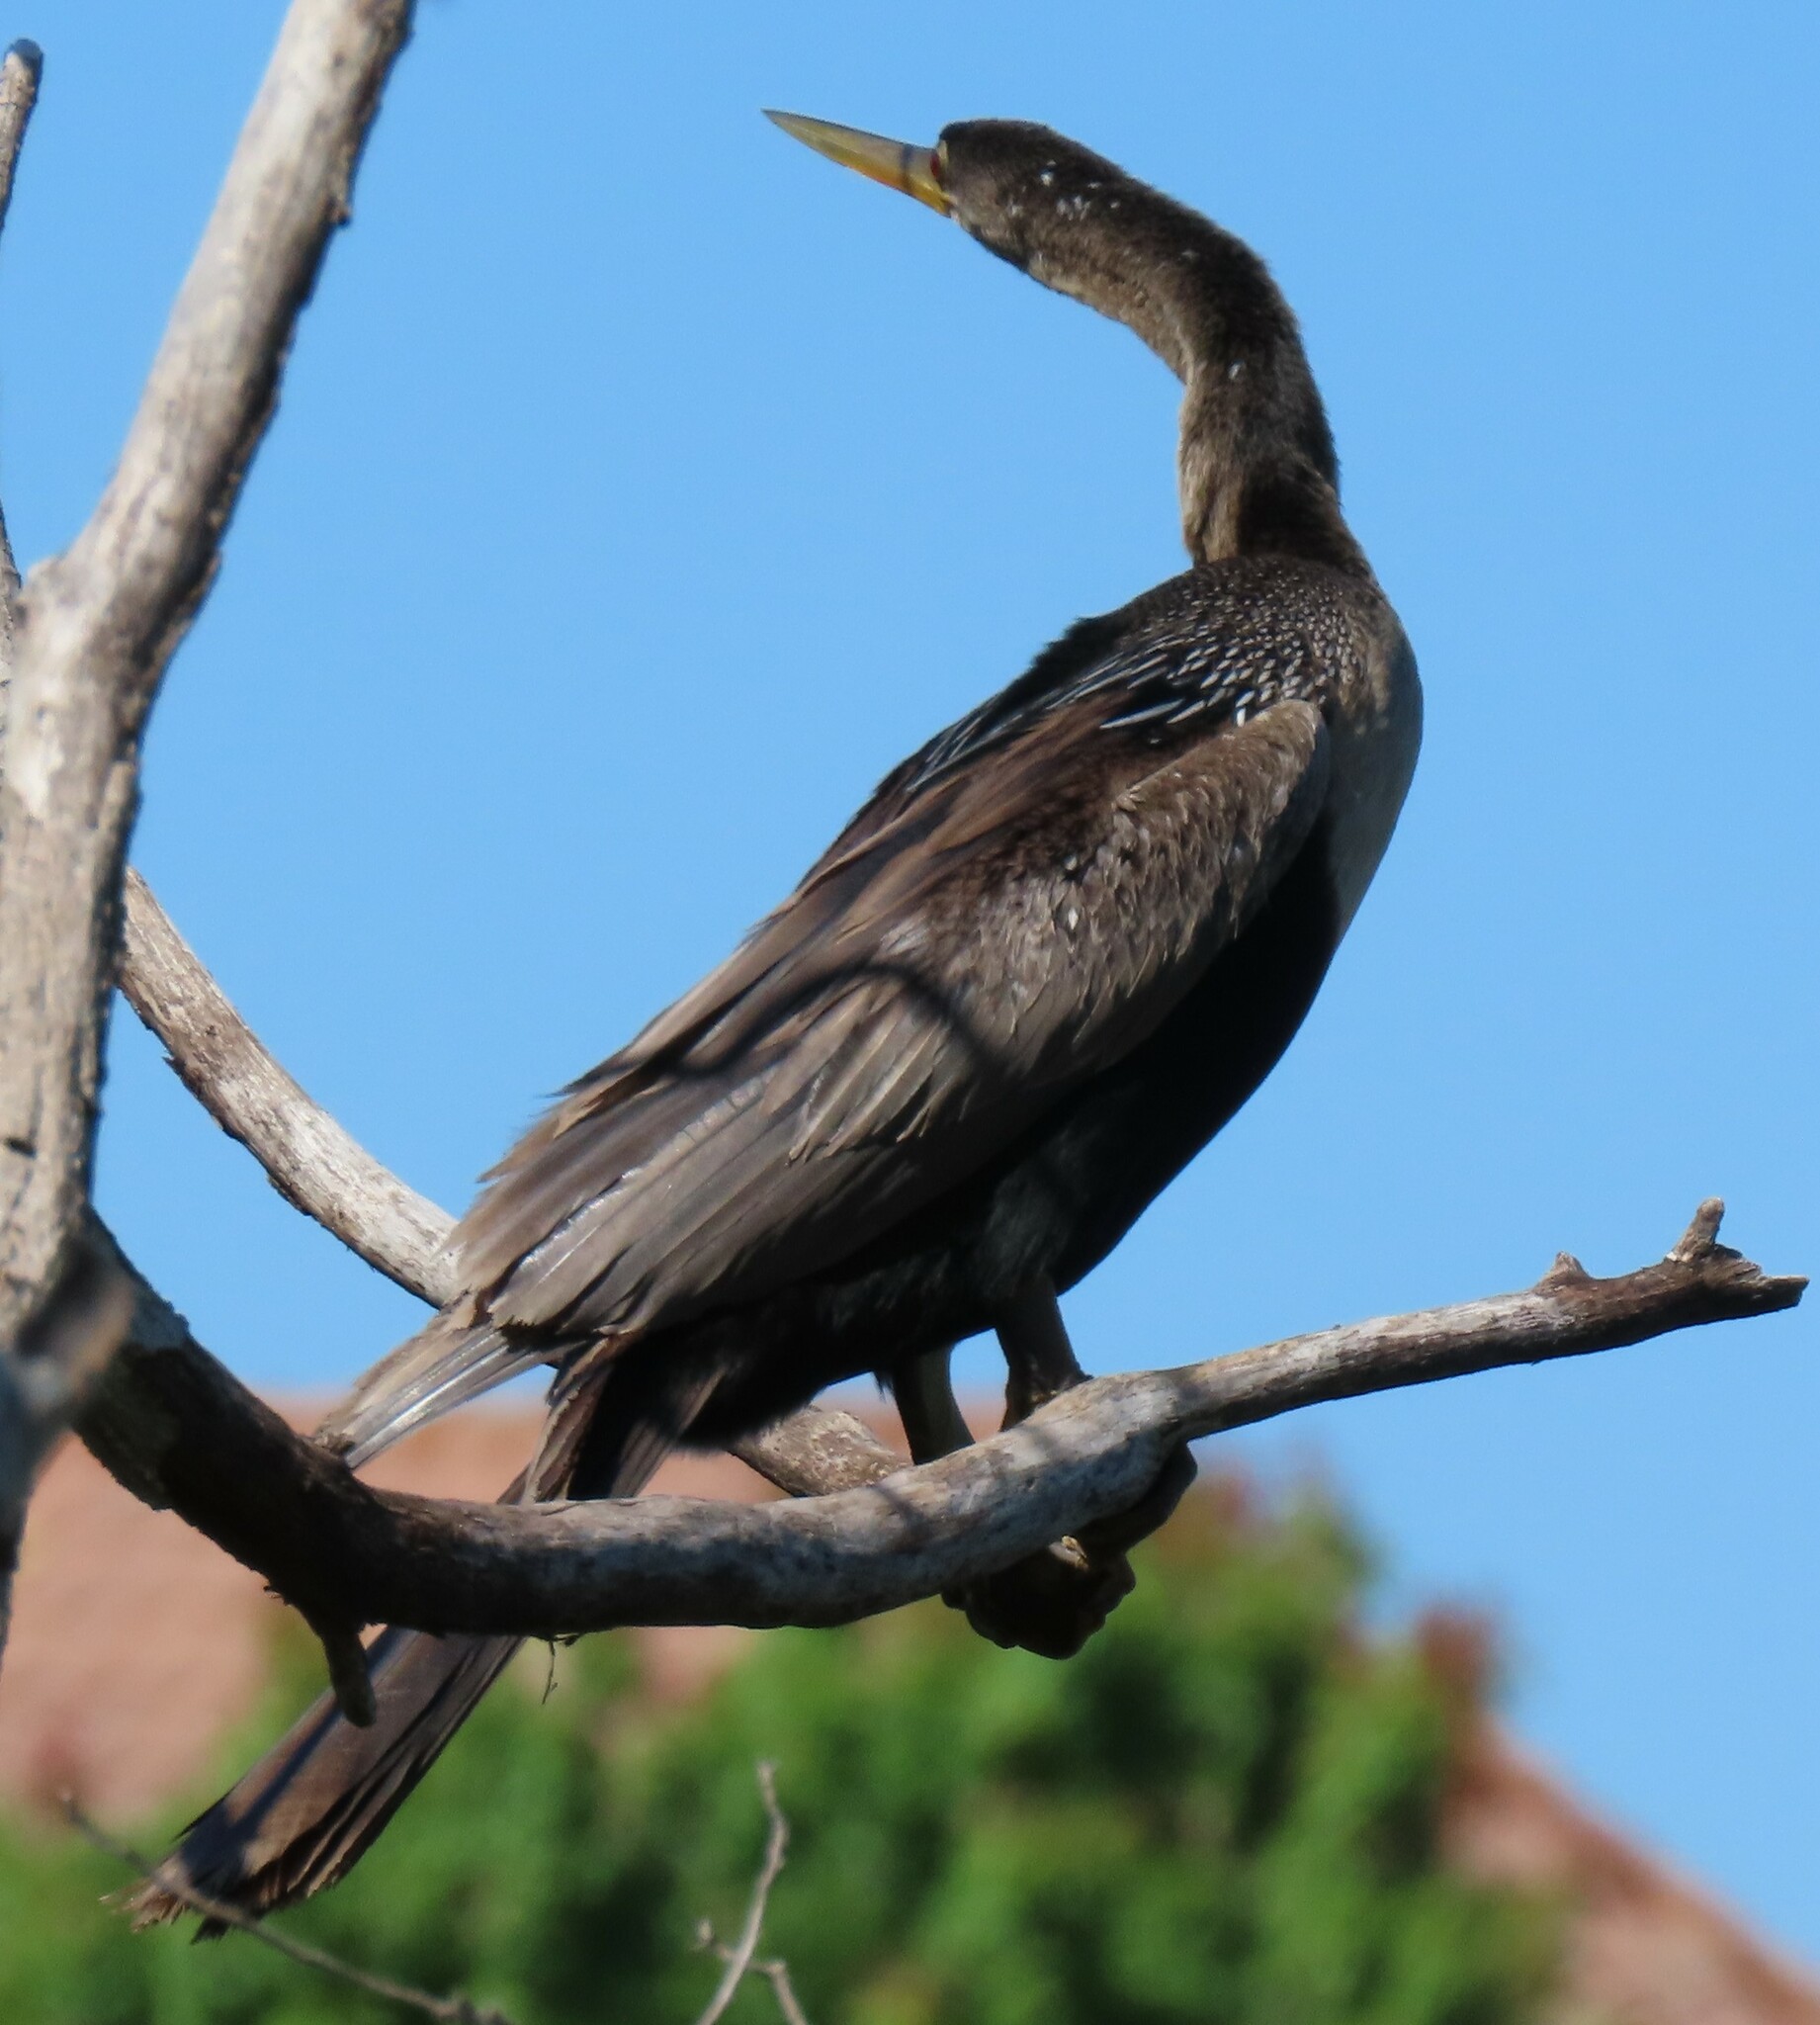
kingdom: Animalia
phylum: Chordata
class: Aves
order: Suliformes
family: Anhingidae
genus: Anhinga
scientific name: Anhinga anhinga
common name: Anhinga
